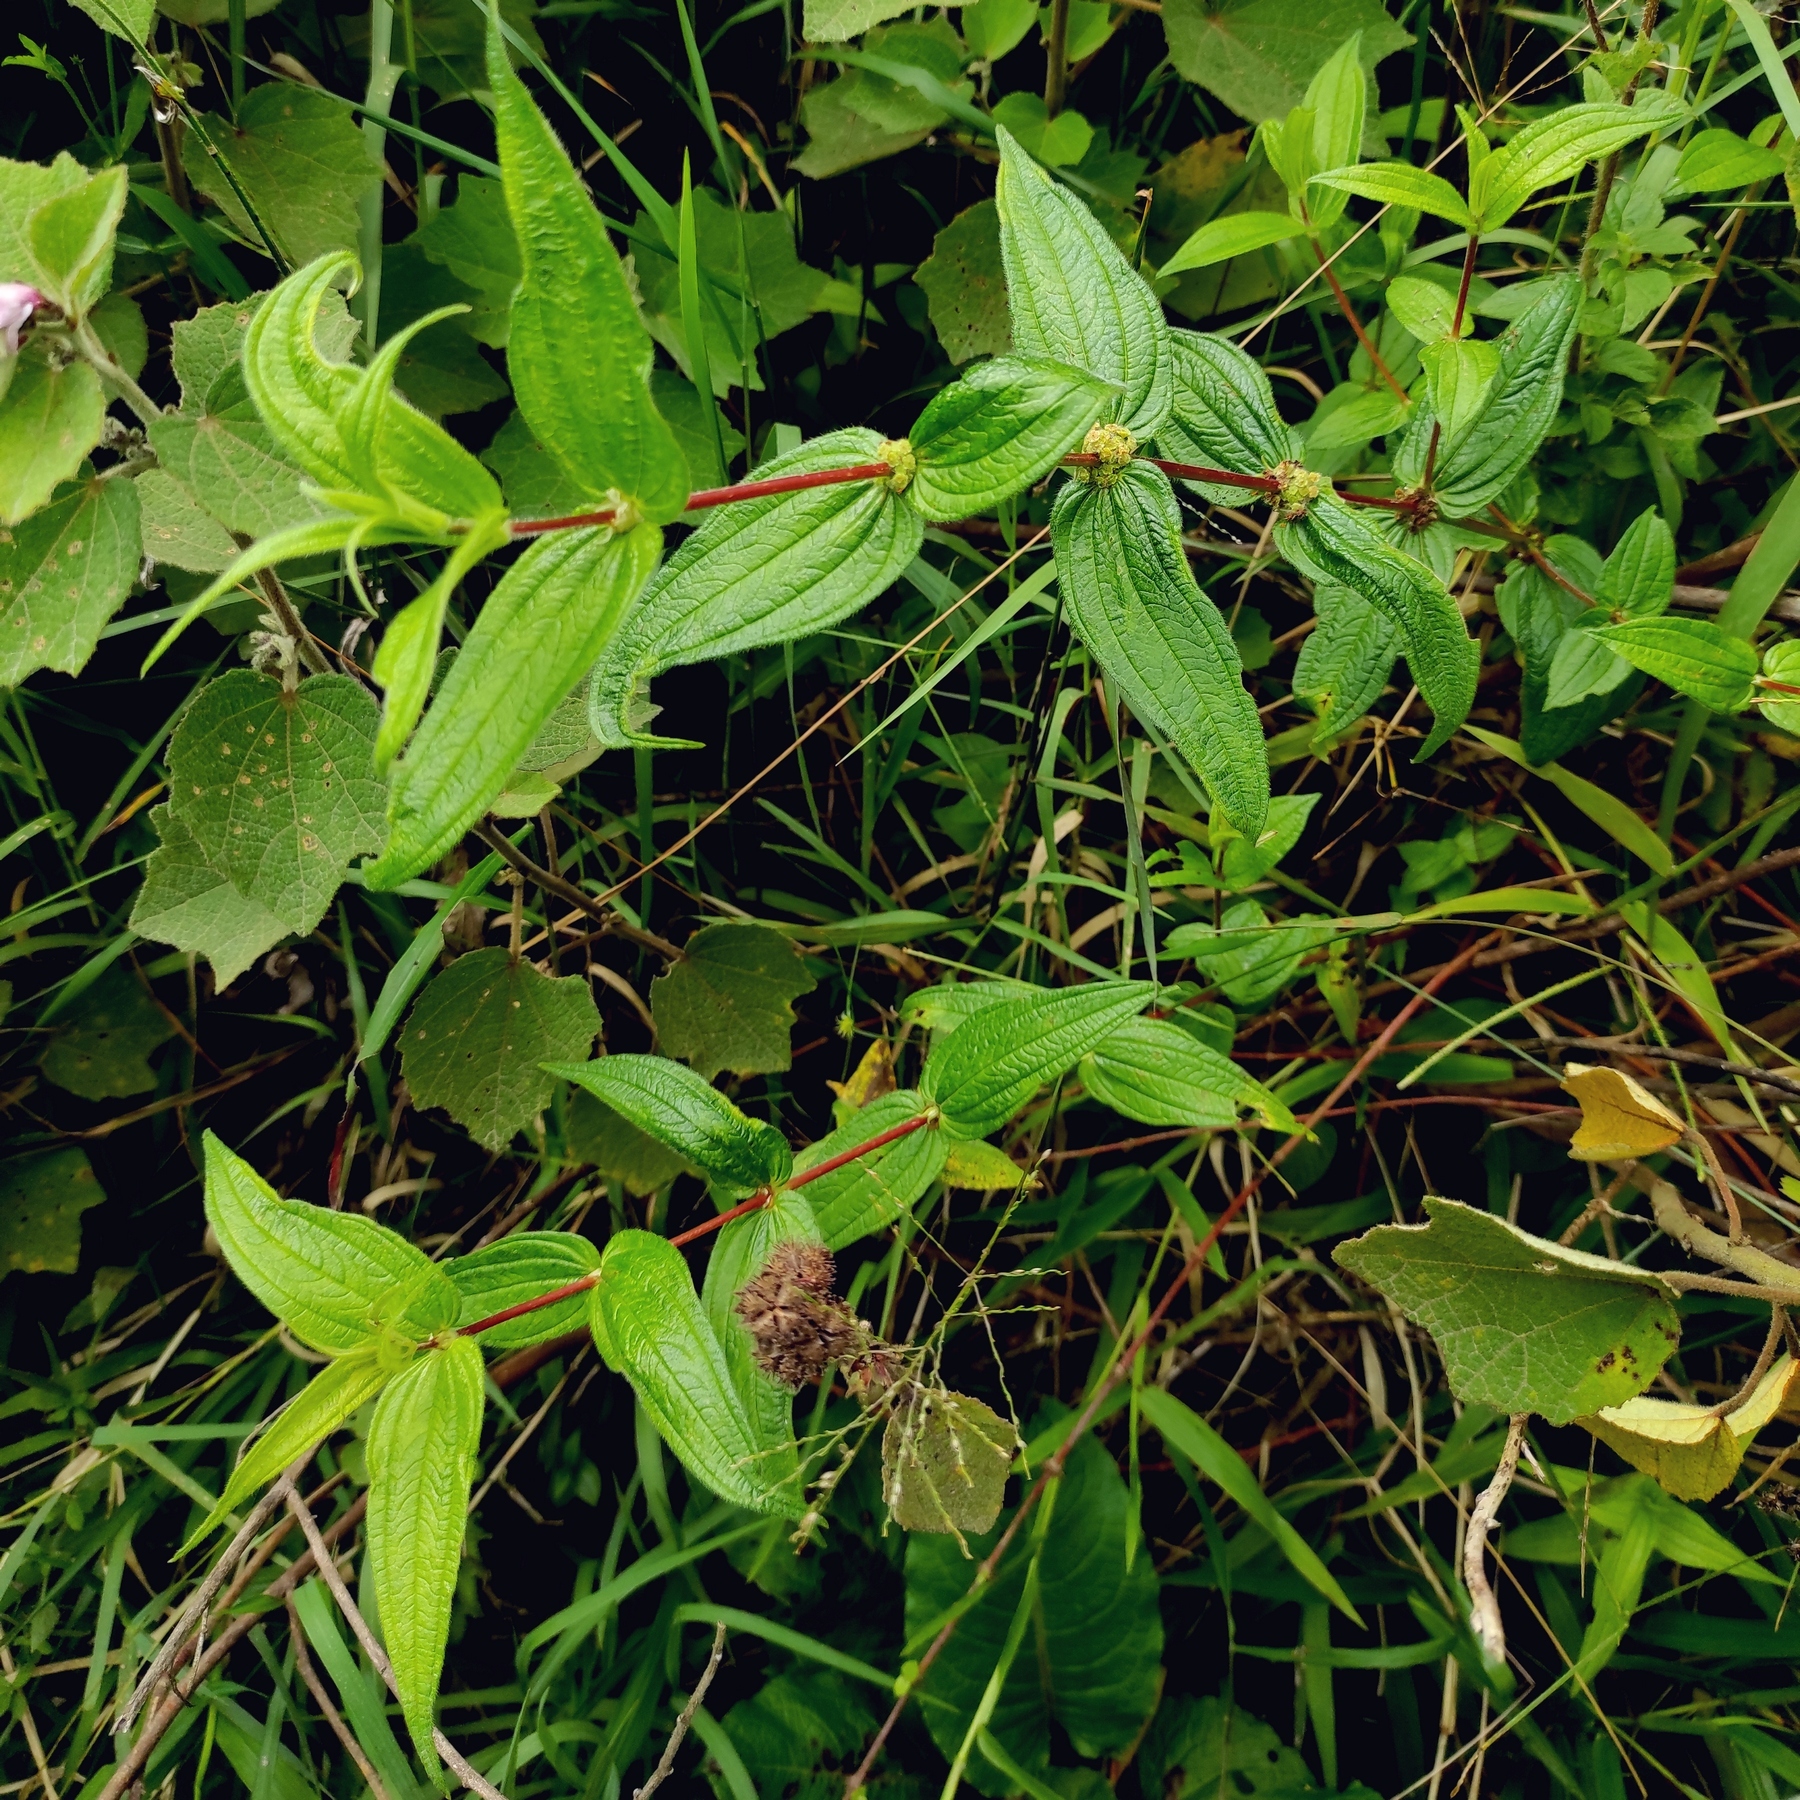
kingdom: Plantae
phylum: Tracheophyta
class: Magnoliopsida
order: Rosales
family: Urticaceae
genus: Gonostegia
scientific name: Gonostegia triandra
